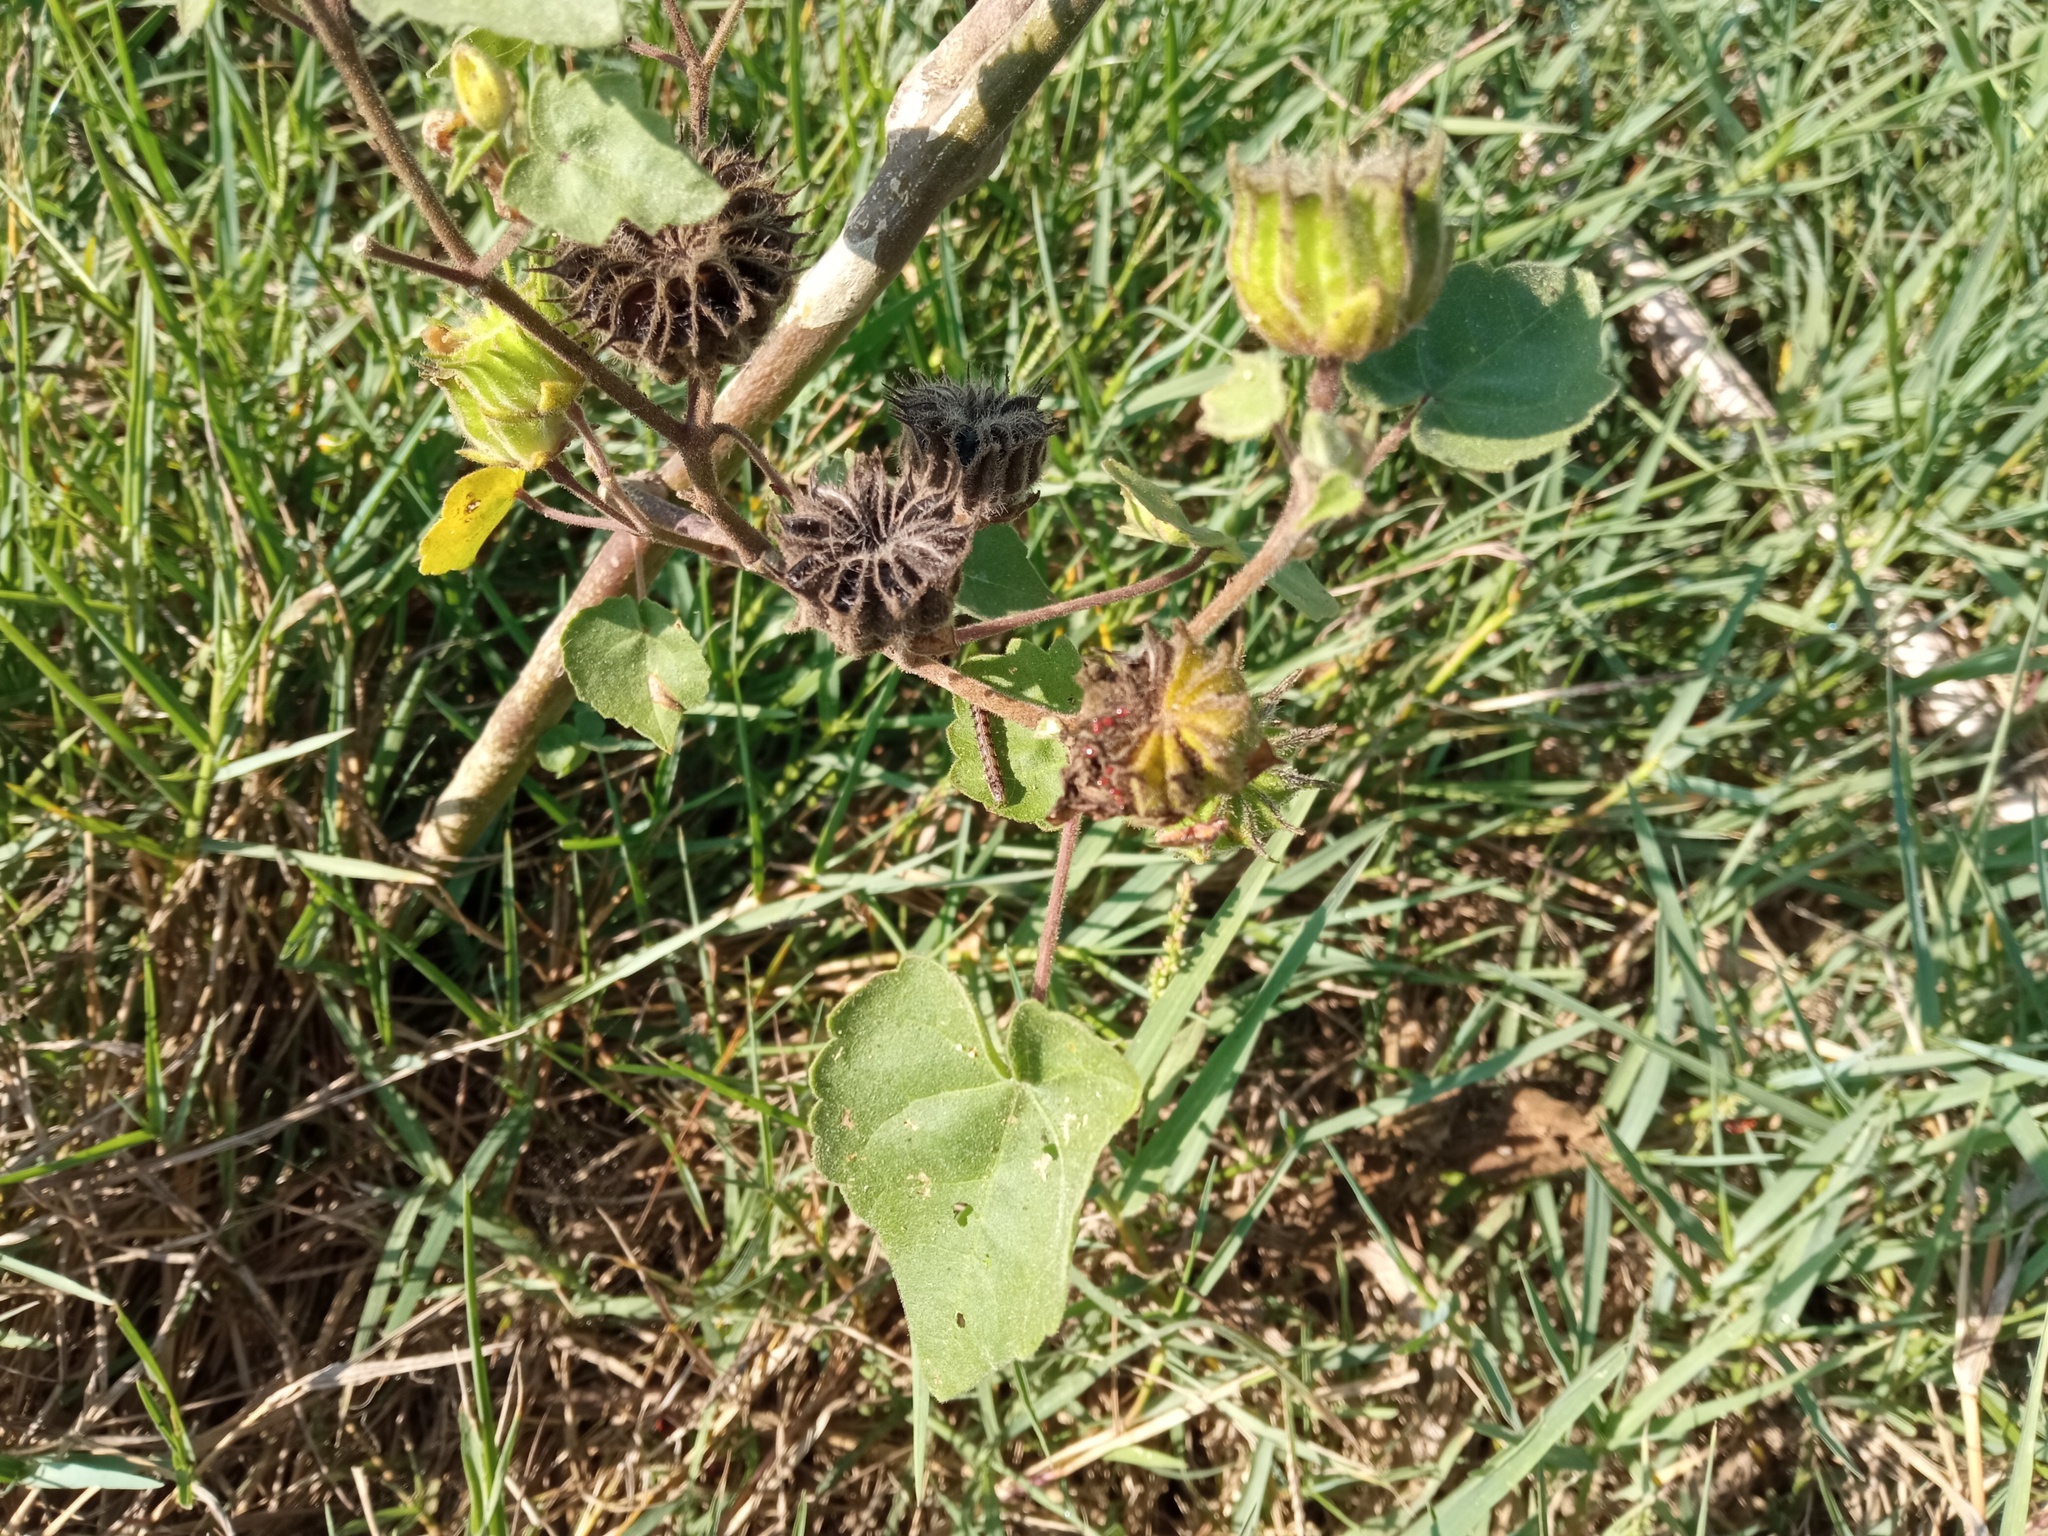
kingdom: Plantae
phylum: Tracheophyta
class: Magnoliopsida
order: Malvales
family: Malvaceae
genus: Abutilon
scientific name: Abutilon theophrasti
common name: Velvetleaf
